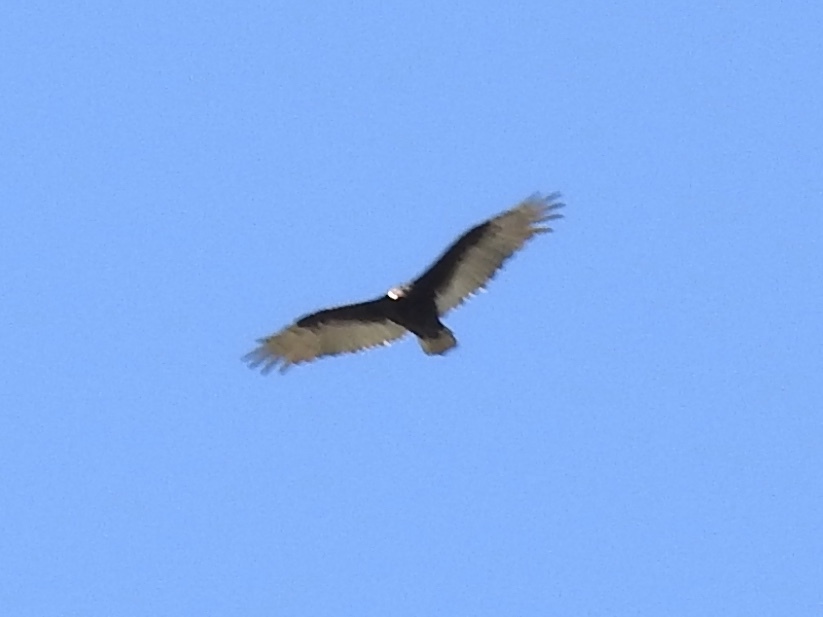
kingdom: Animalia
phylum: Chordata
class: Aves
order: Accipitriformes
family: Cathartidae
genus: Cathartes
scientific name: Cathartes aura
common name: Turkey vulture
